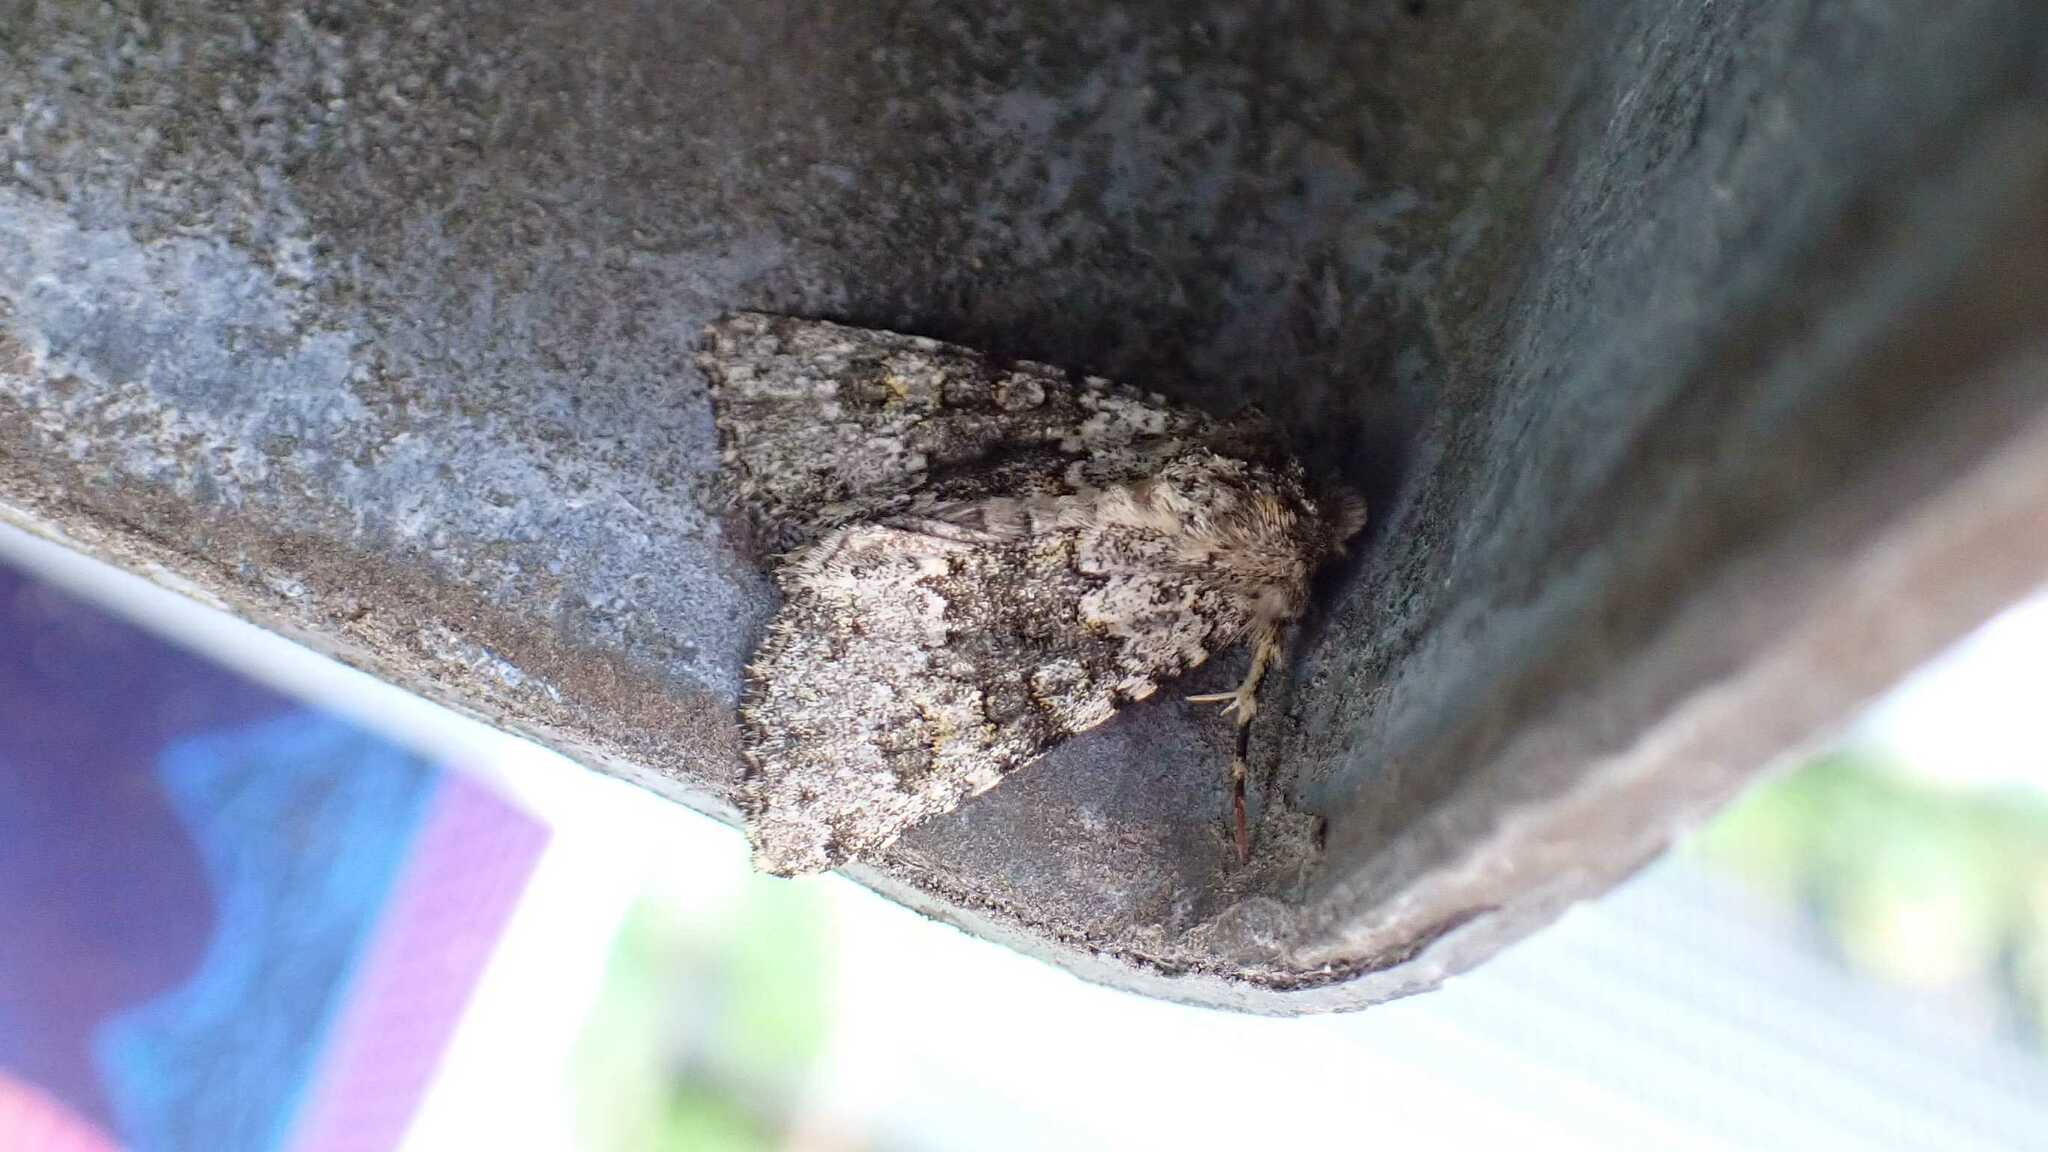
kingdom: Animalia
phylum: Arthropoda
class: Insecta
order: Lepidoptera
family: Noctuidae
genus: Hecatera
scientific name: Hecatera dysodea
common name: Small ranunculus
